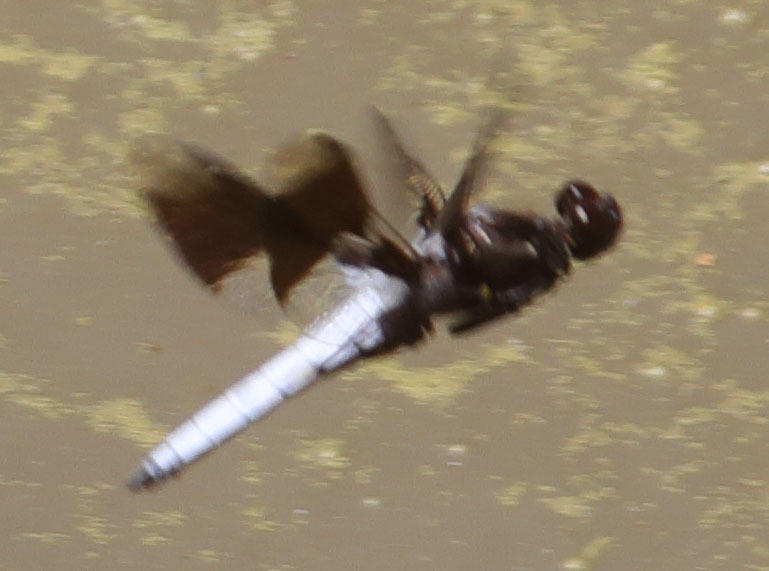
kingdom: Animalia
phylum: Arthropoda
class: Insecta
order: Odonata
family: Libellulidae
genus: Plathemis
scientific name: Plathemis lydia
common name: Common whitetail
